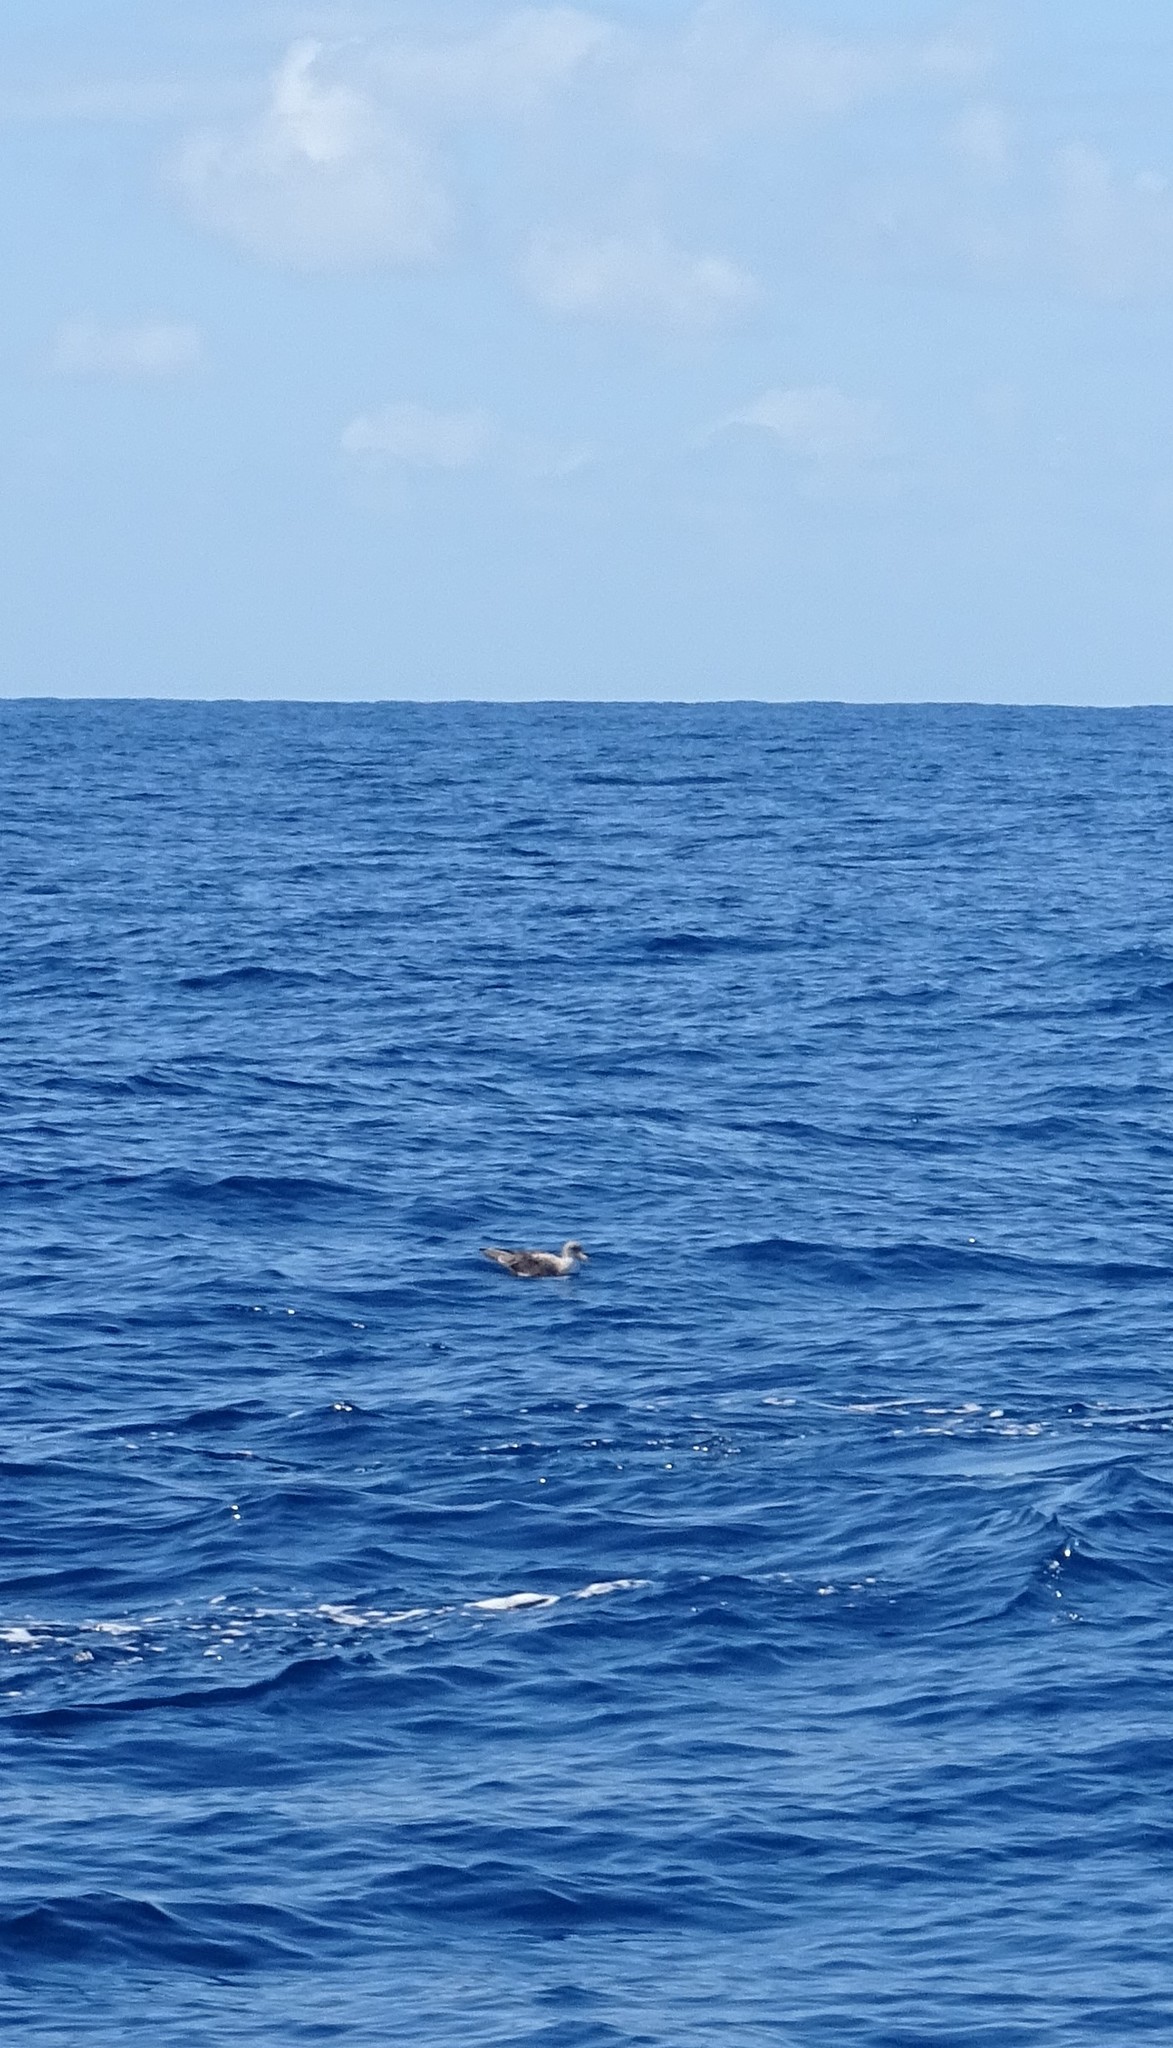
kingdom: Animalia
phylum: Chordata
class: Aves
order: Procellariiformes
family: Procellariidae
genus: Calonectris
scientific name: Calonectris diomedea
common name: Cory's shearwater
